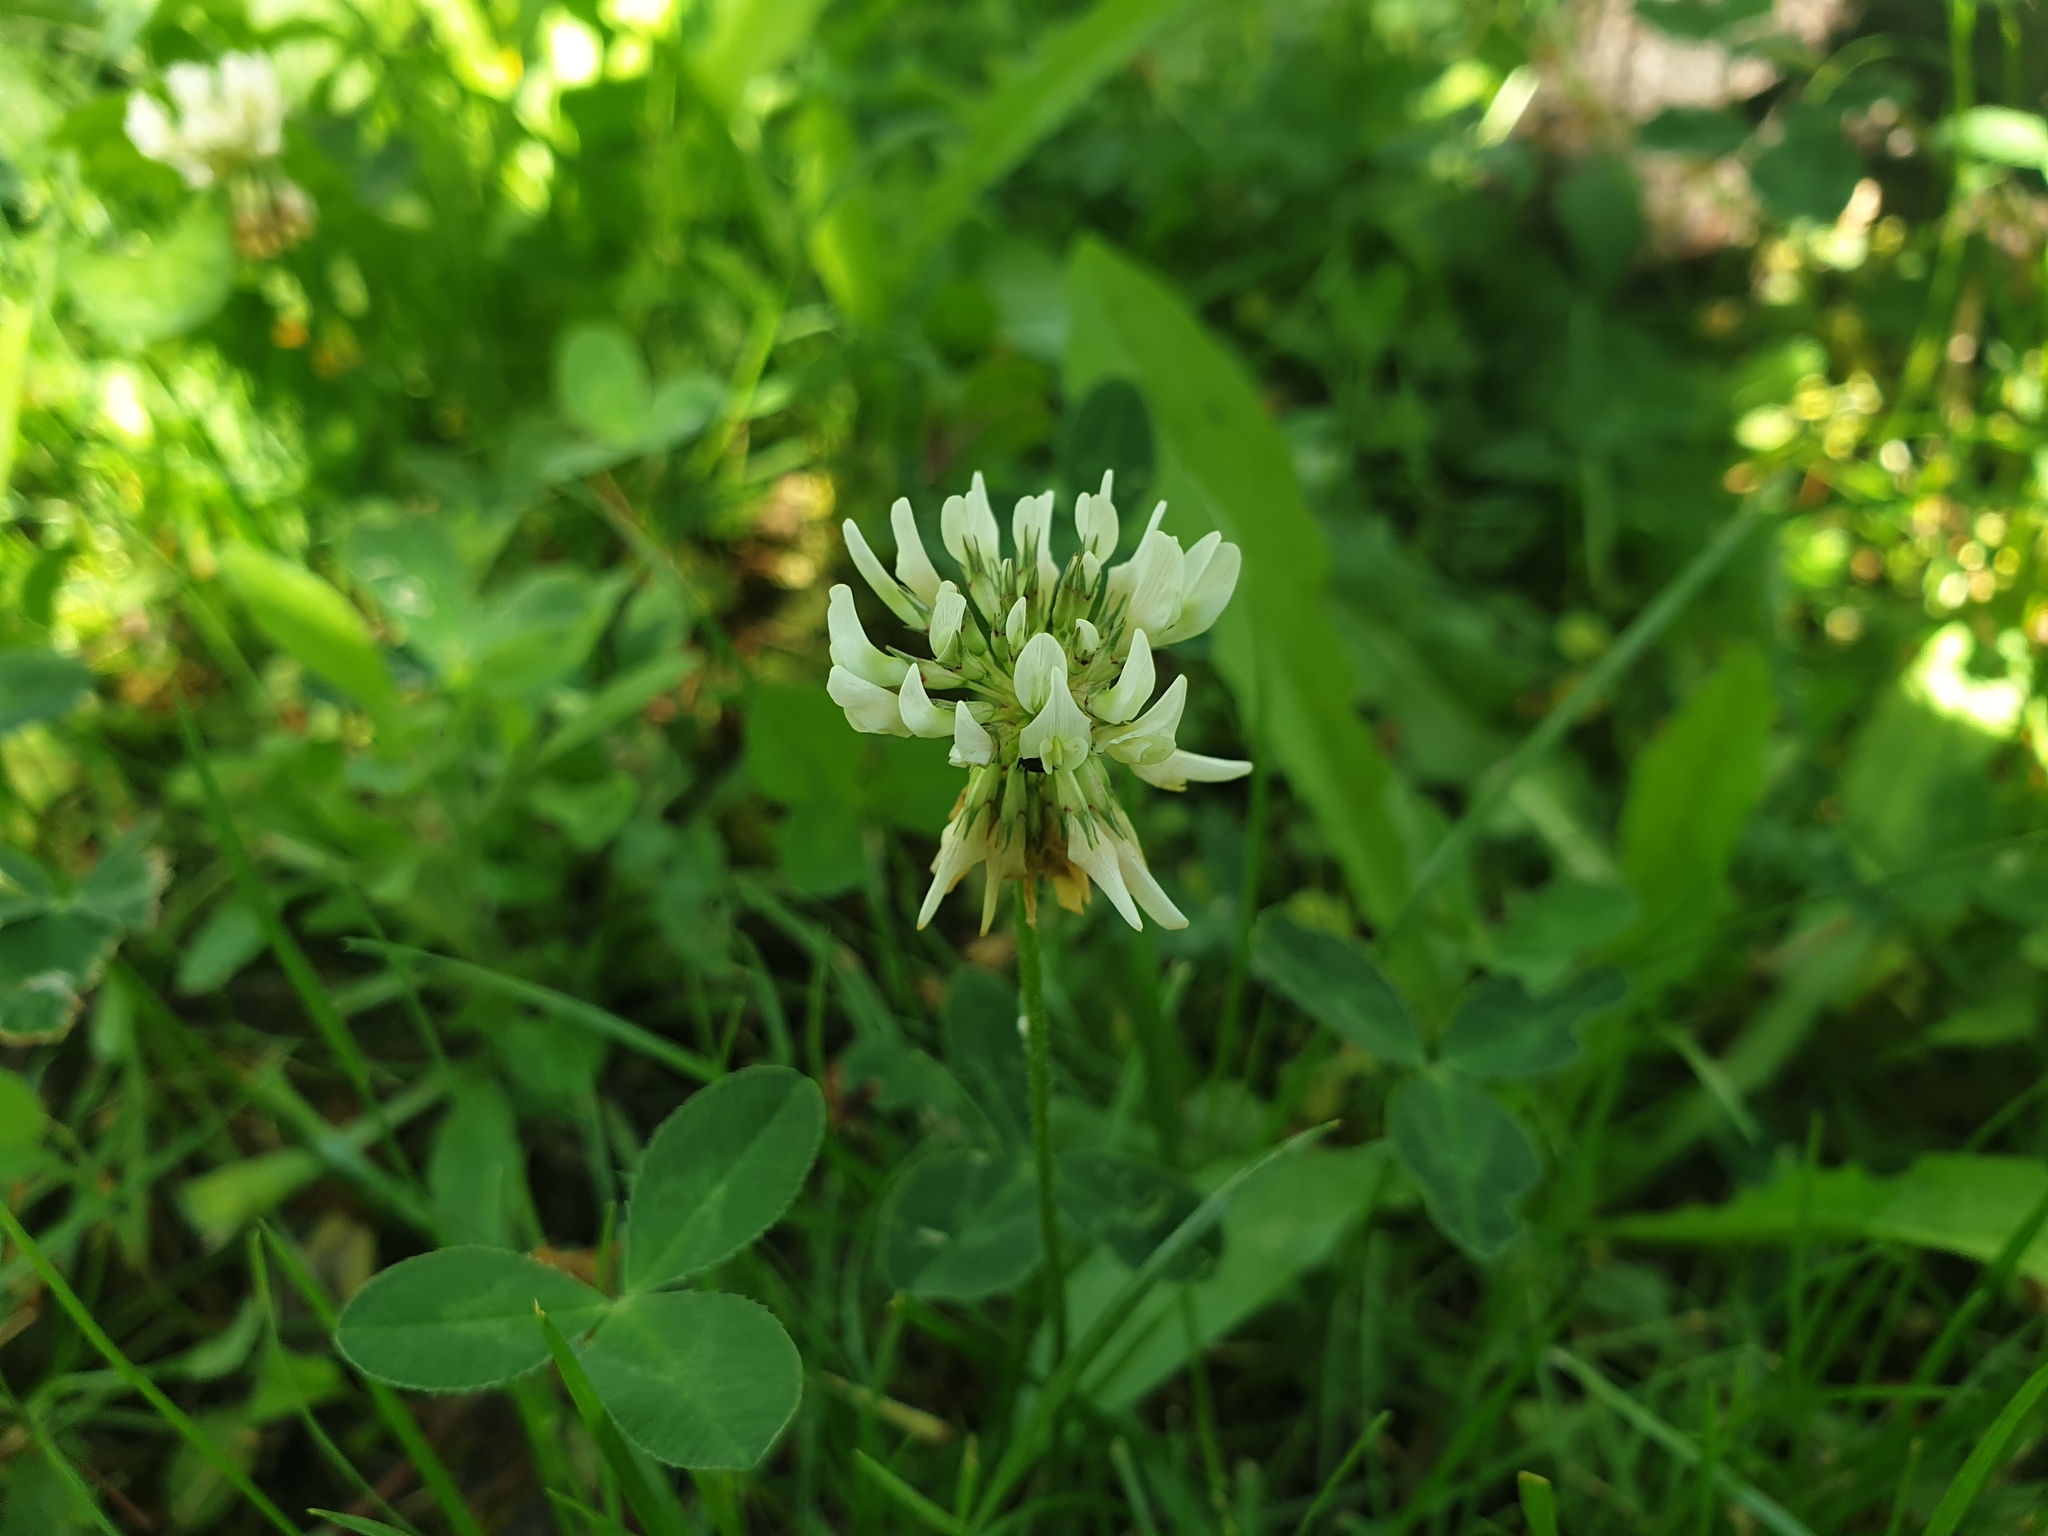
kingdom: Plantae
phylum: Tracheophyta
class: Magnoliopsida
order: Fabales
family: Fabaceae
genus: Trifolium
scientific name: Trifolium repens
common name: White clover
